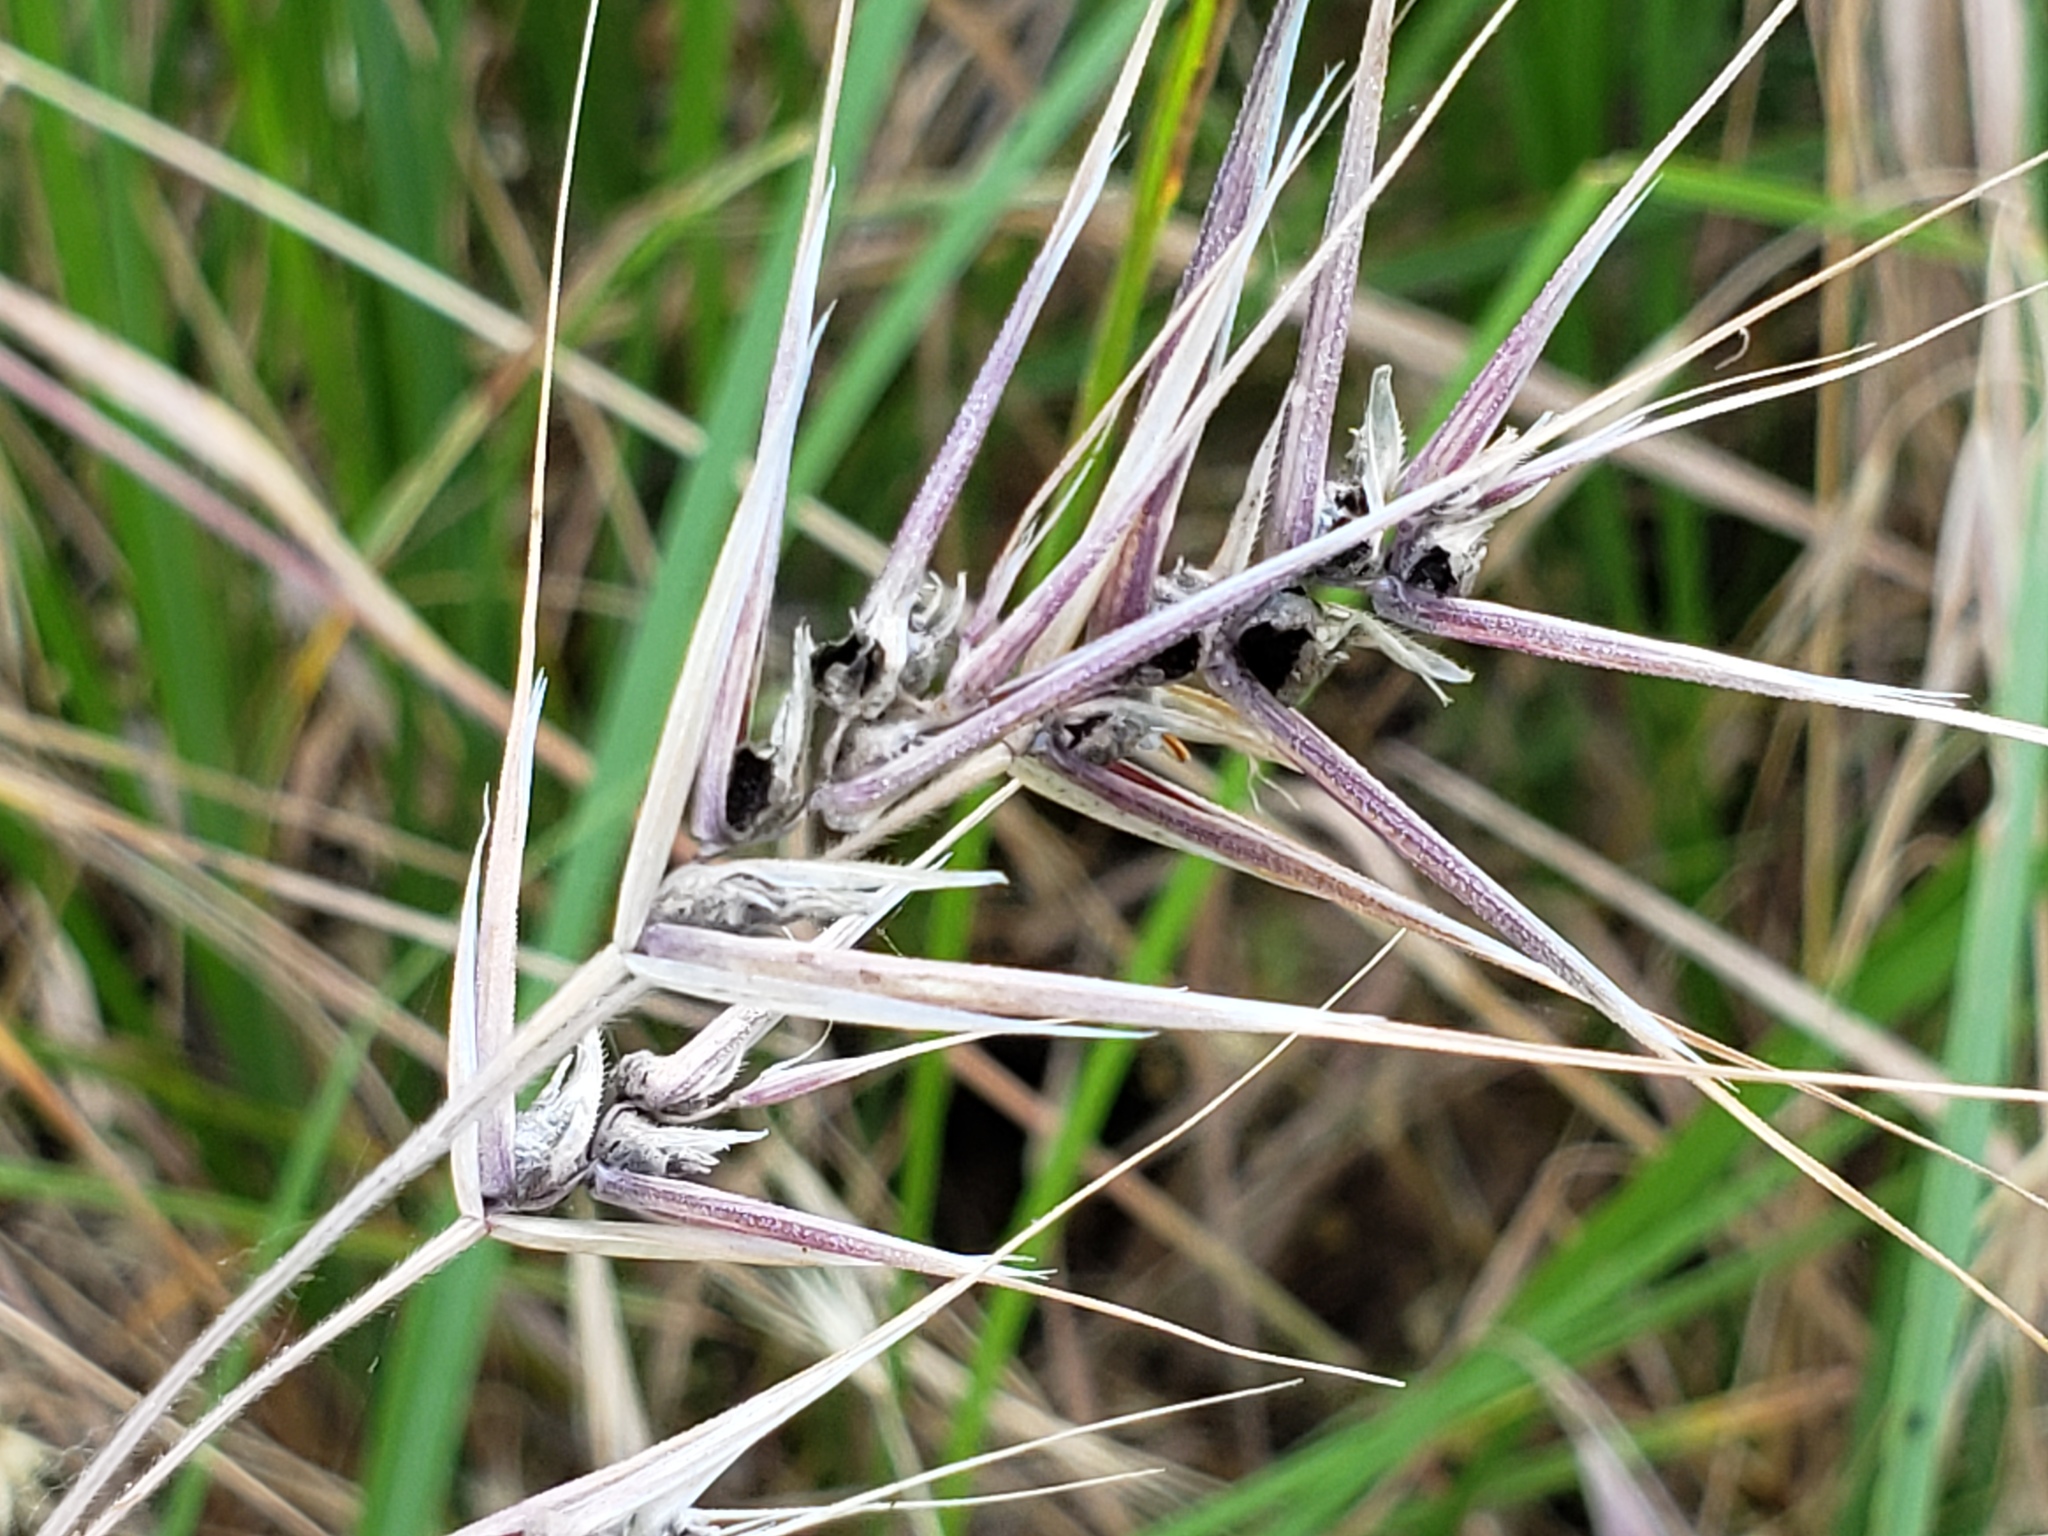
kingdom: Plantae
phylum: Tracheophyta
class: Liliopsida
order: Poales
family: Poaceae
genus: Bromus
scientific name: Bromus tectorum
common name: Cheatgrass
